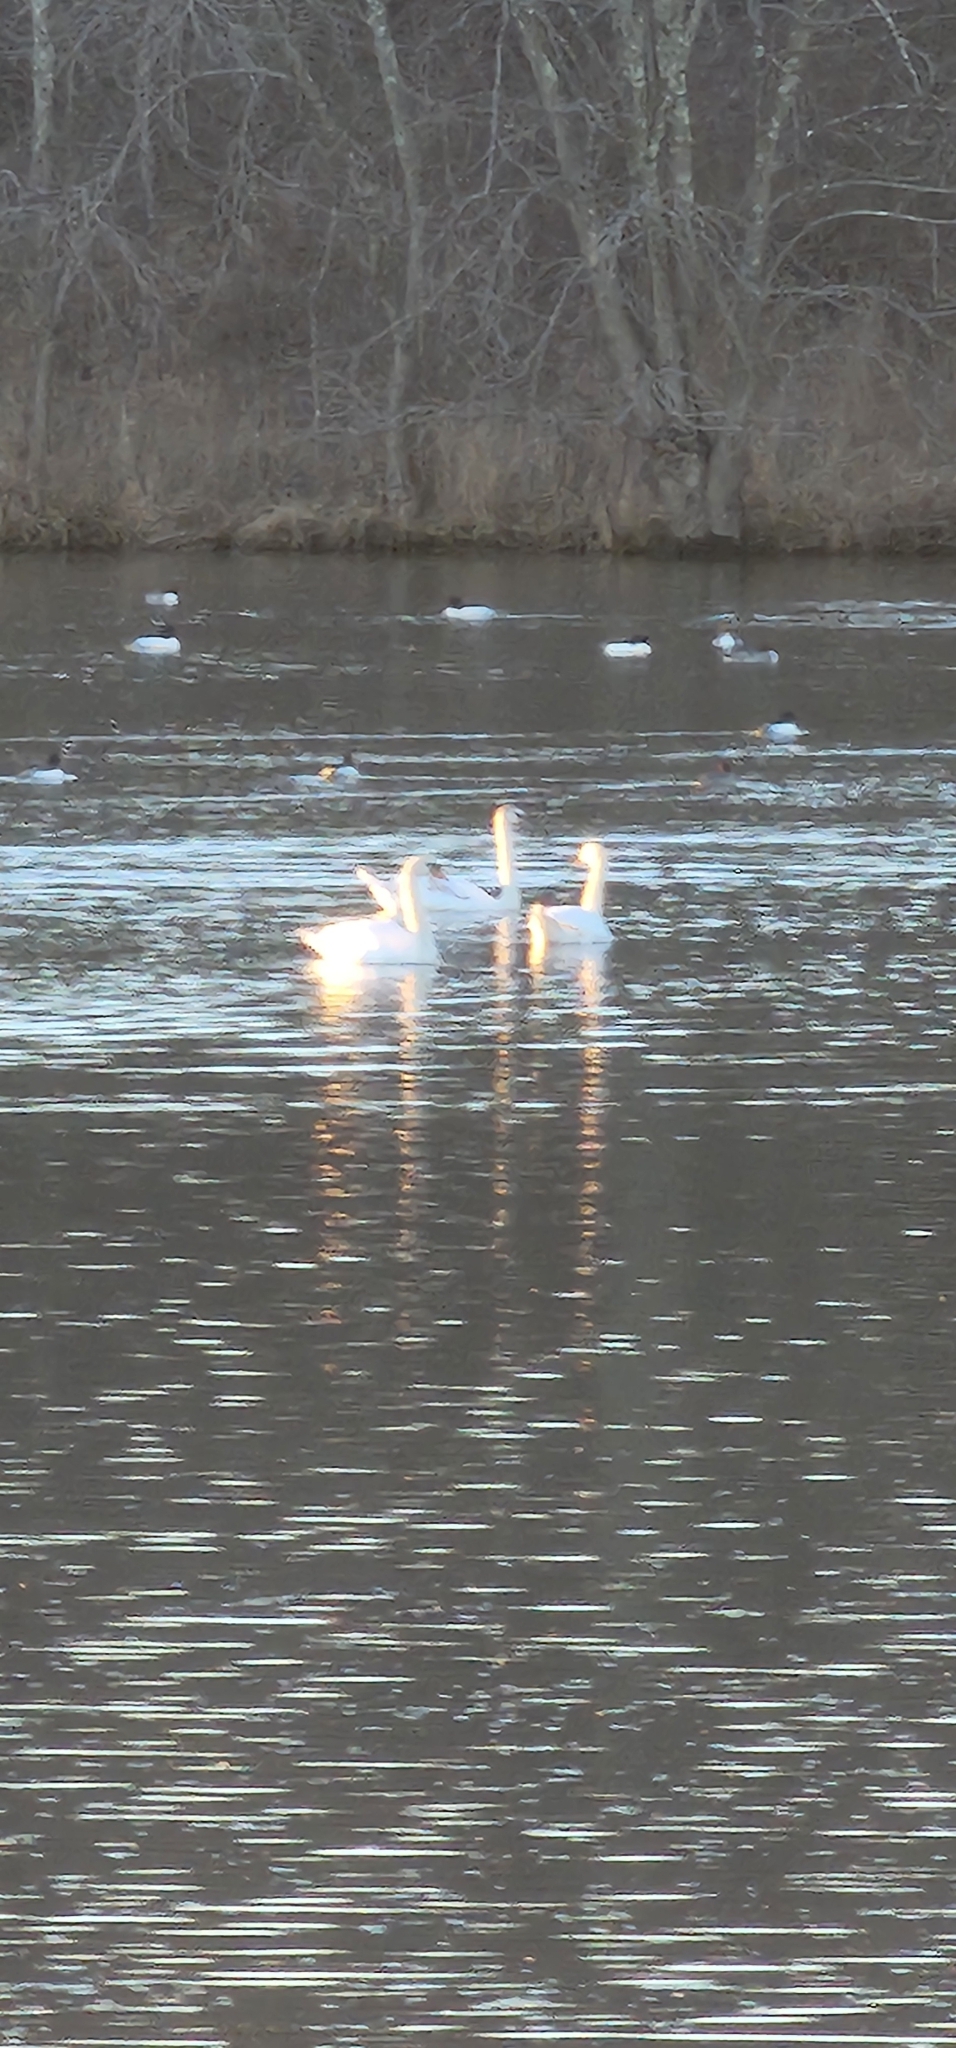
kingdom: Animalia
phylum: Chordata
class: Aves
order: Anseriformes
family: Anatidae
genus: Cygnus
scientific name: Cygnus olor
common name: Mute swan
